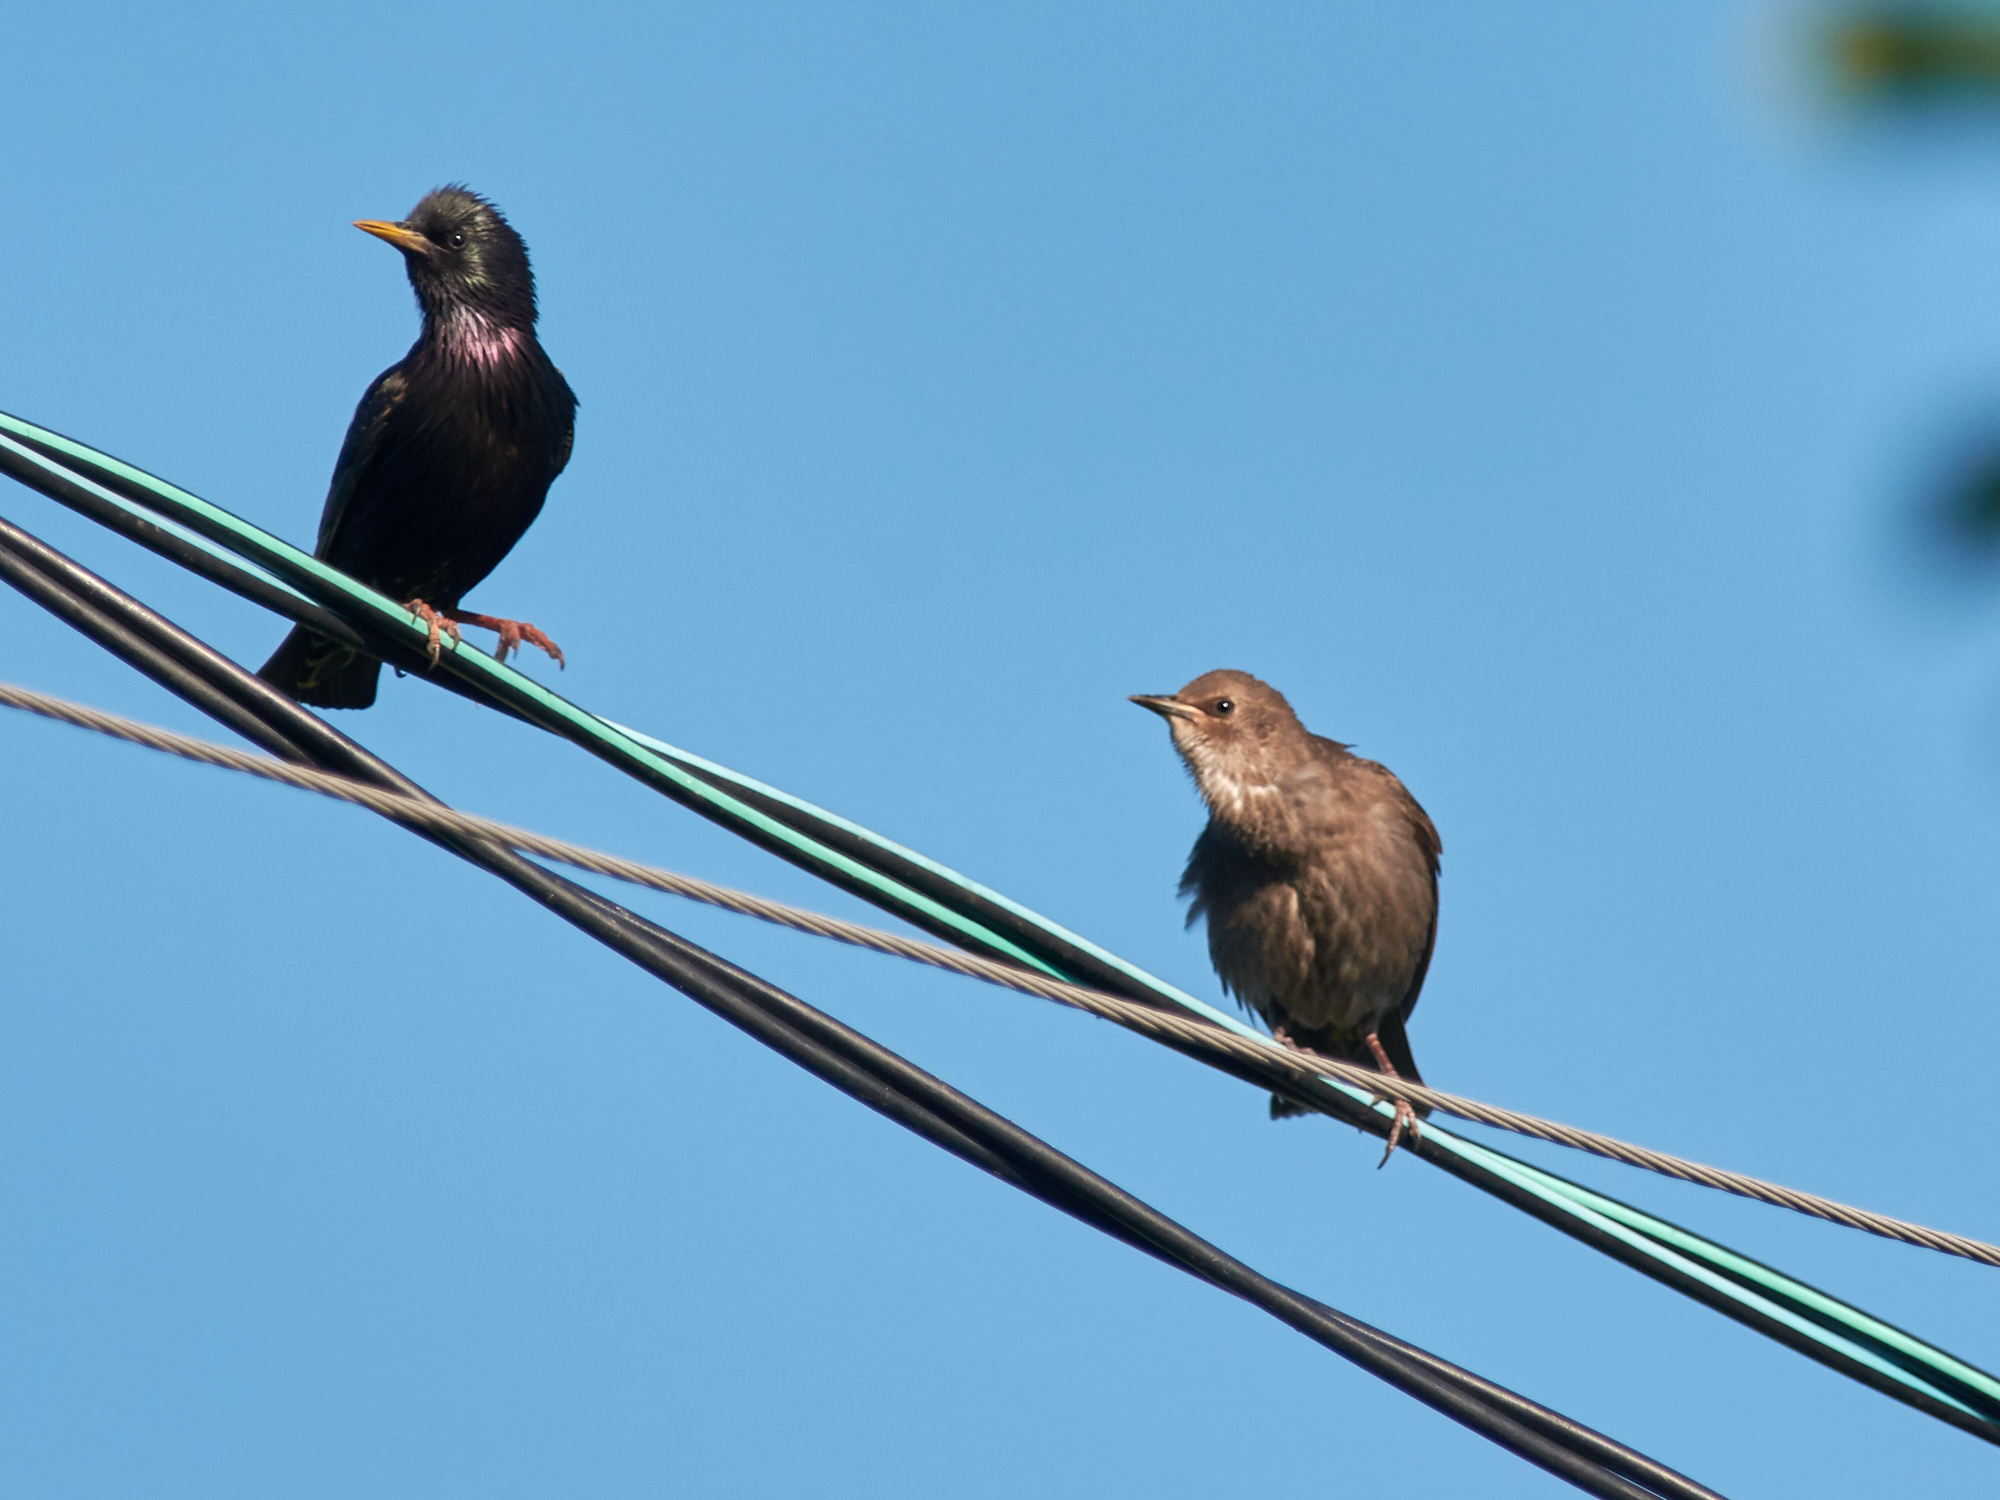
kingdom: Animalia
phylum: Chordata
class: Aves
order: Passeriformes
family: Sturnidae
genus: Sturnus
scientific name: Sturnus vulgaris
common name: Common starling
